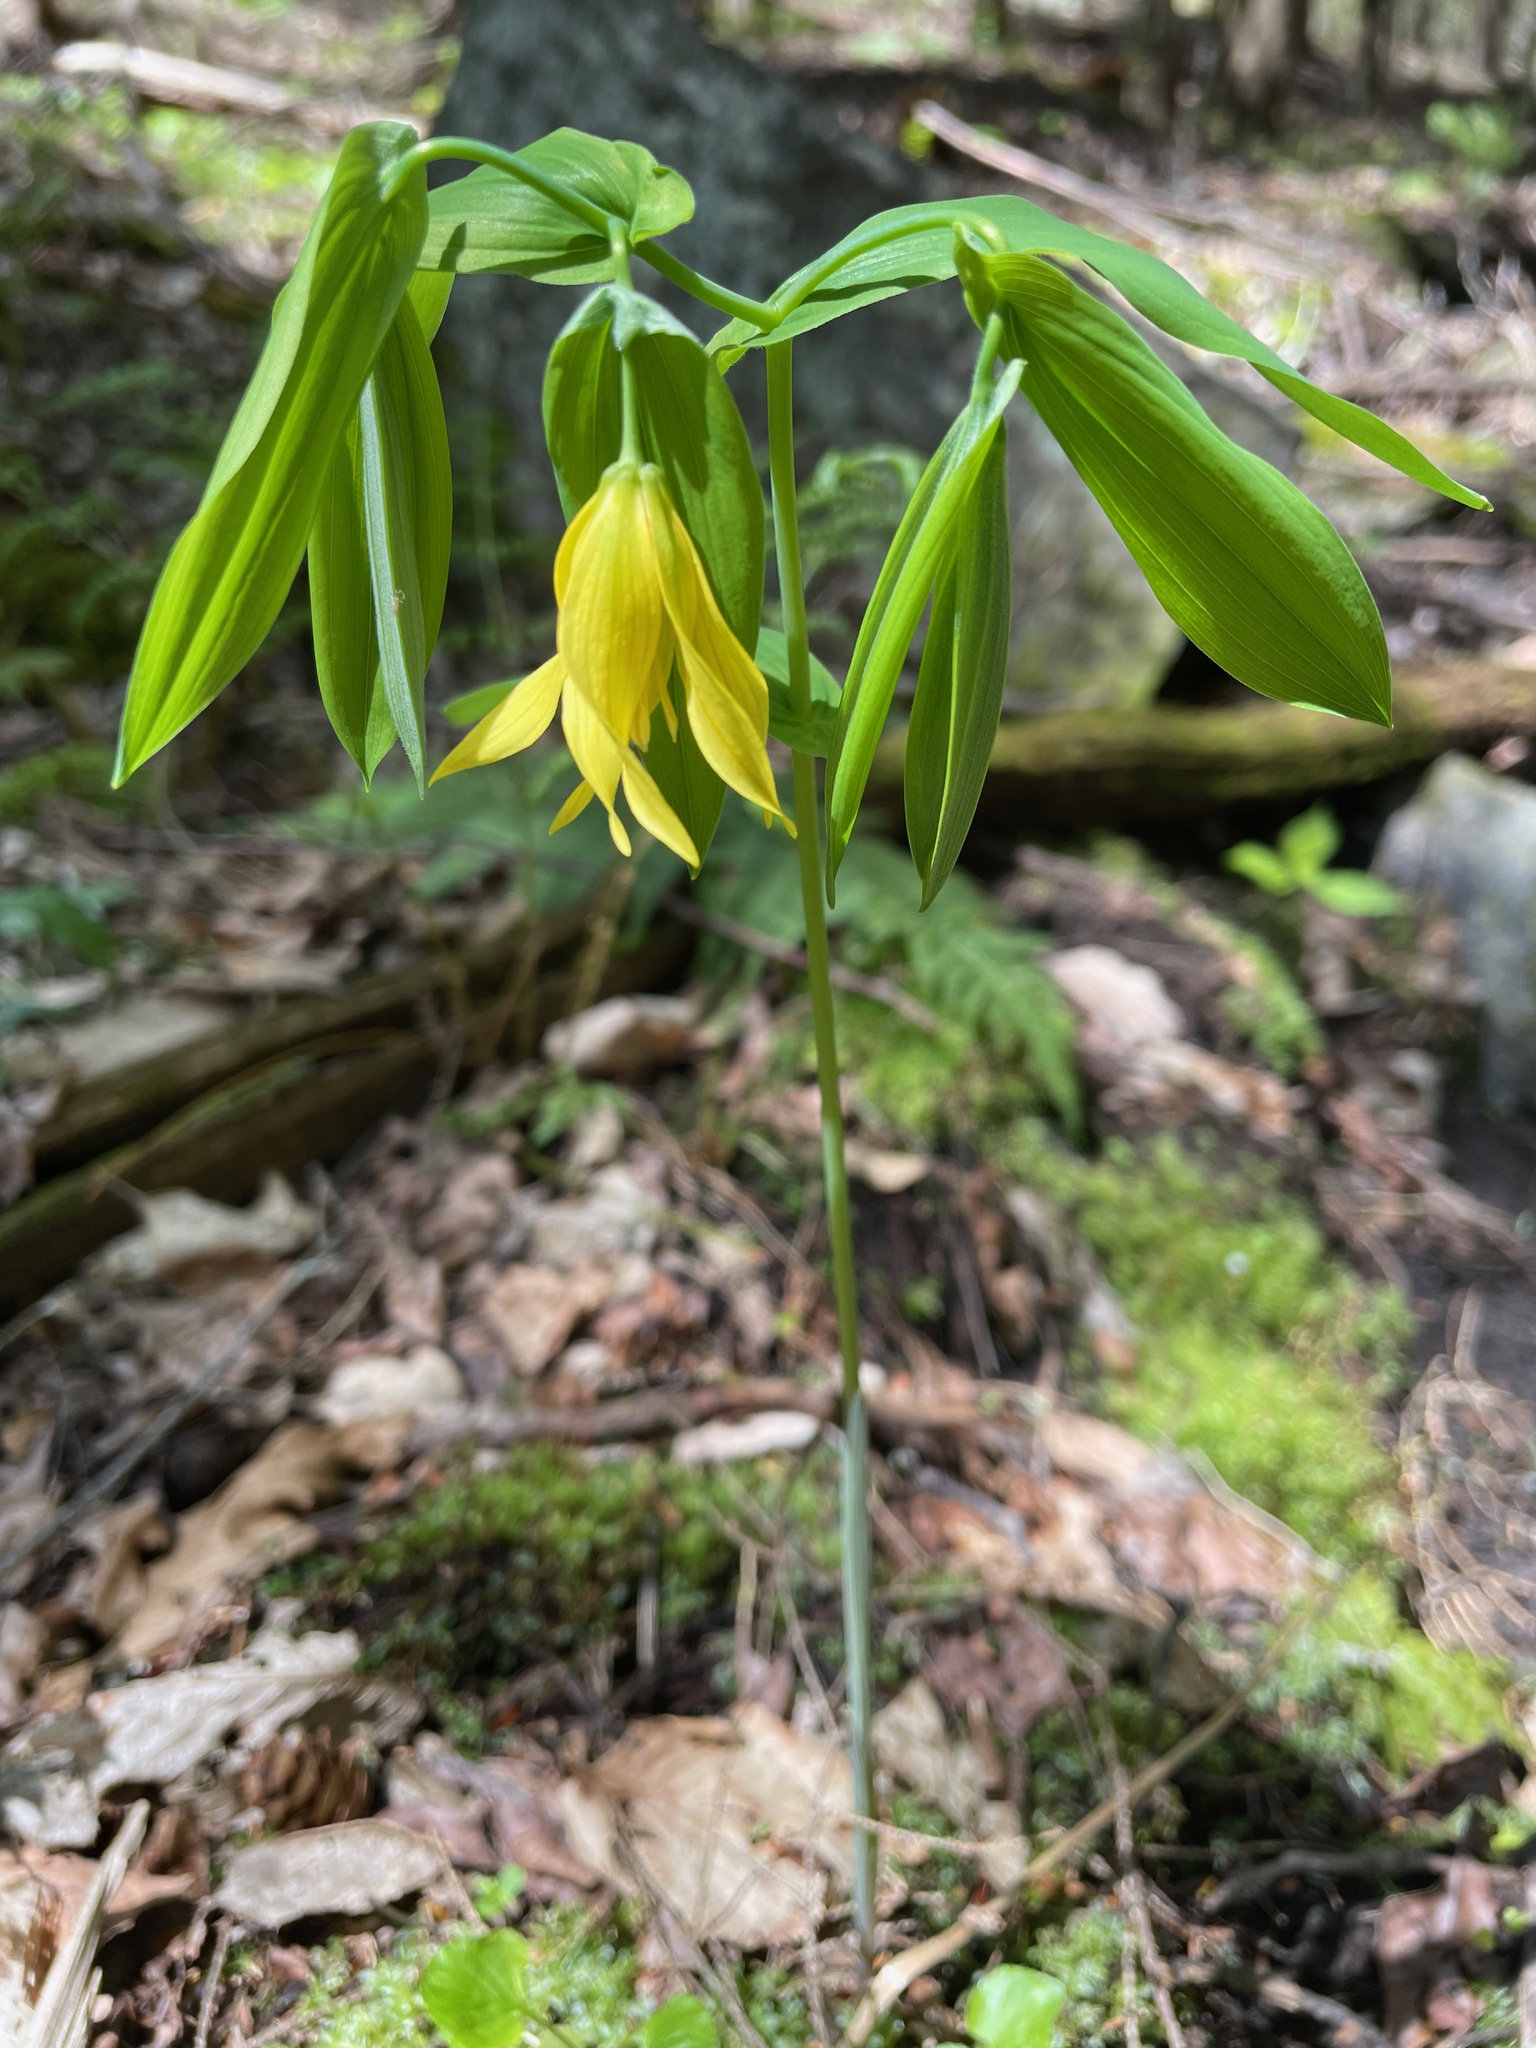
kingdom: Plantae
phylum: Tracheophyta
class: Liliopsida
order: Liliales
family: Colchicaceae
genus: Uvularia
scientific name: Uvularia grandiflora
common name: Bellwort
